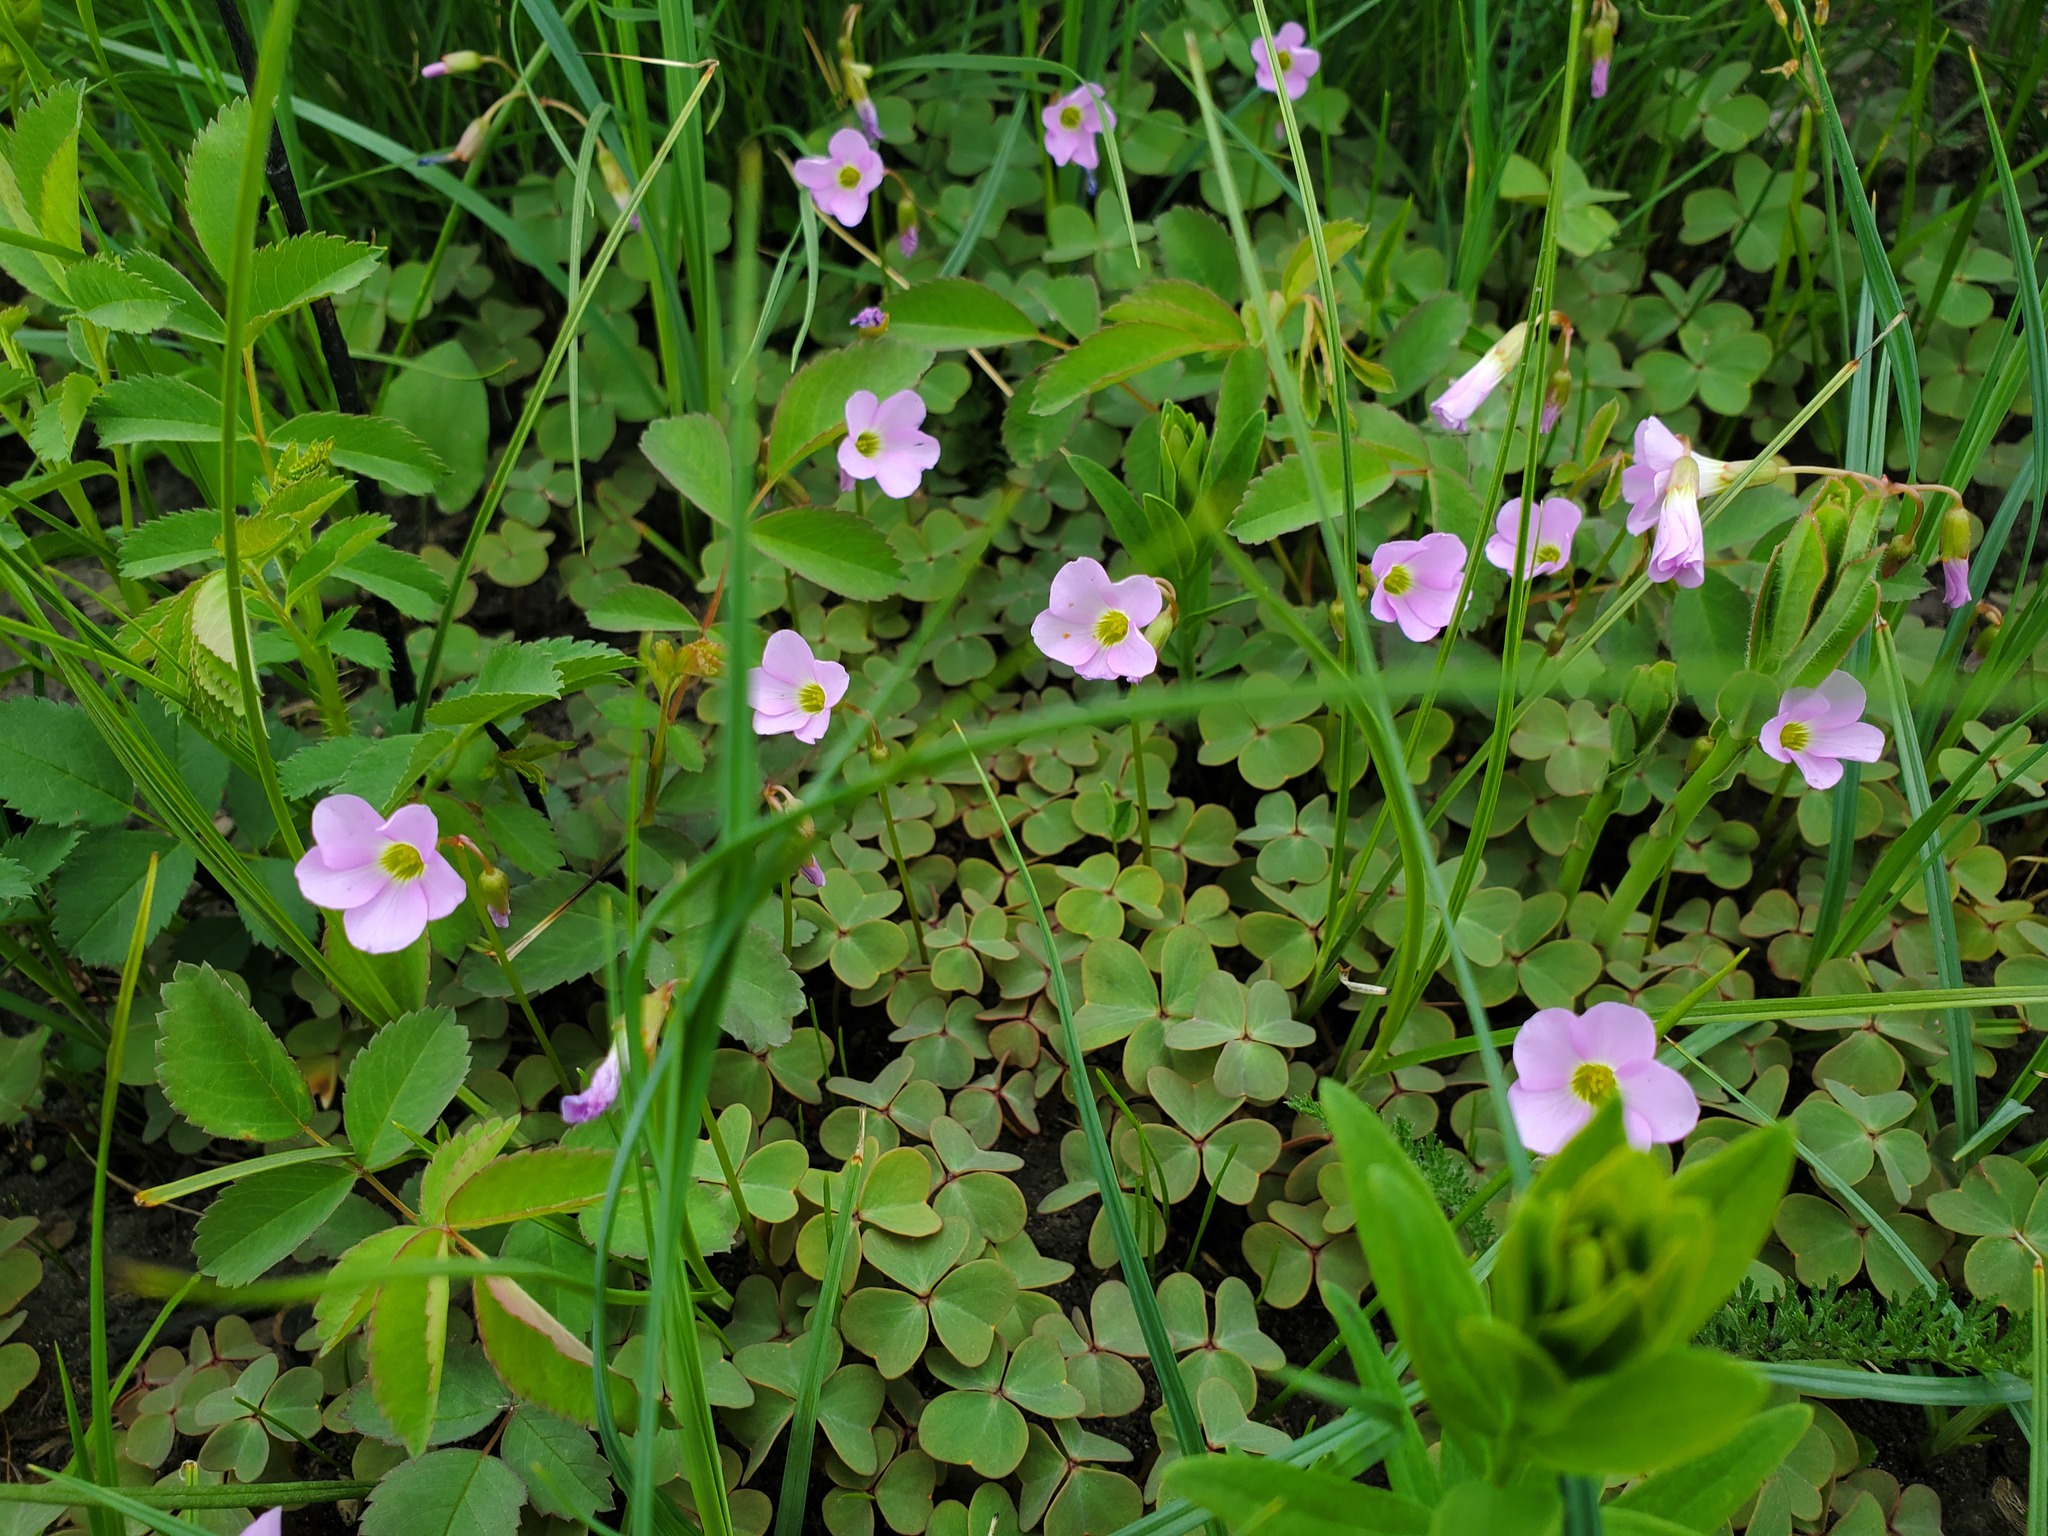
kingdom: Plantae
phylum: Tracheophyta
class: Magnoliopsida
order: Oxalidales
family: Oxalidaceae
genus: Oxalis
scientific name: Oxalis violacea
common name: Violet wood-sorrel
